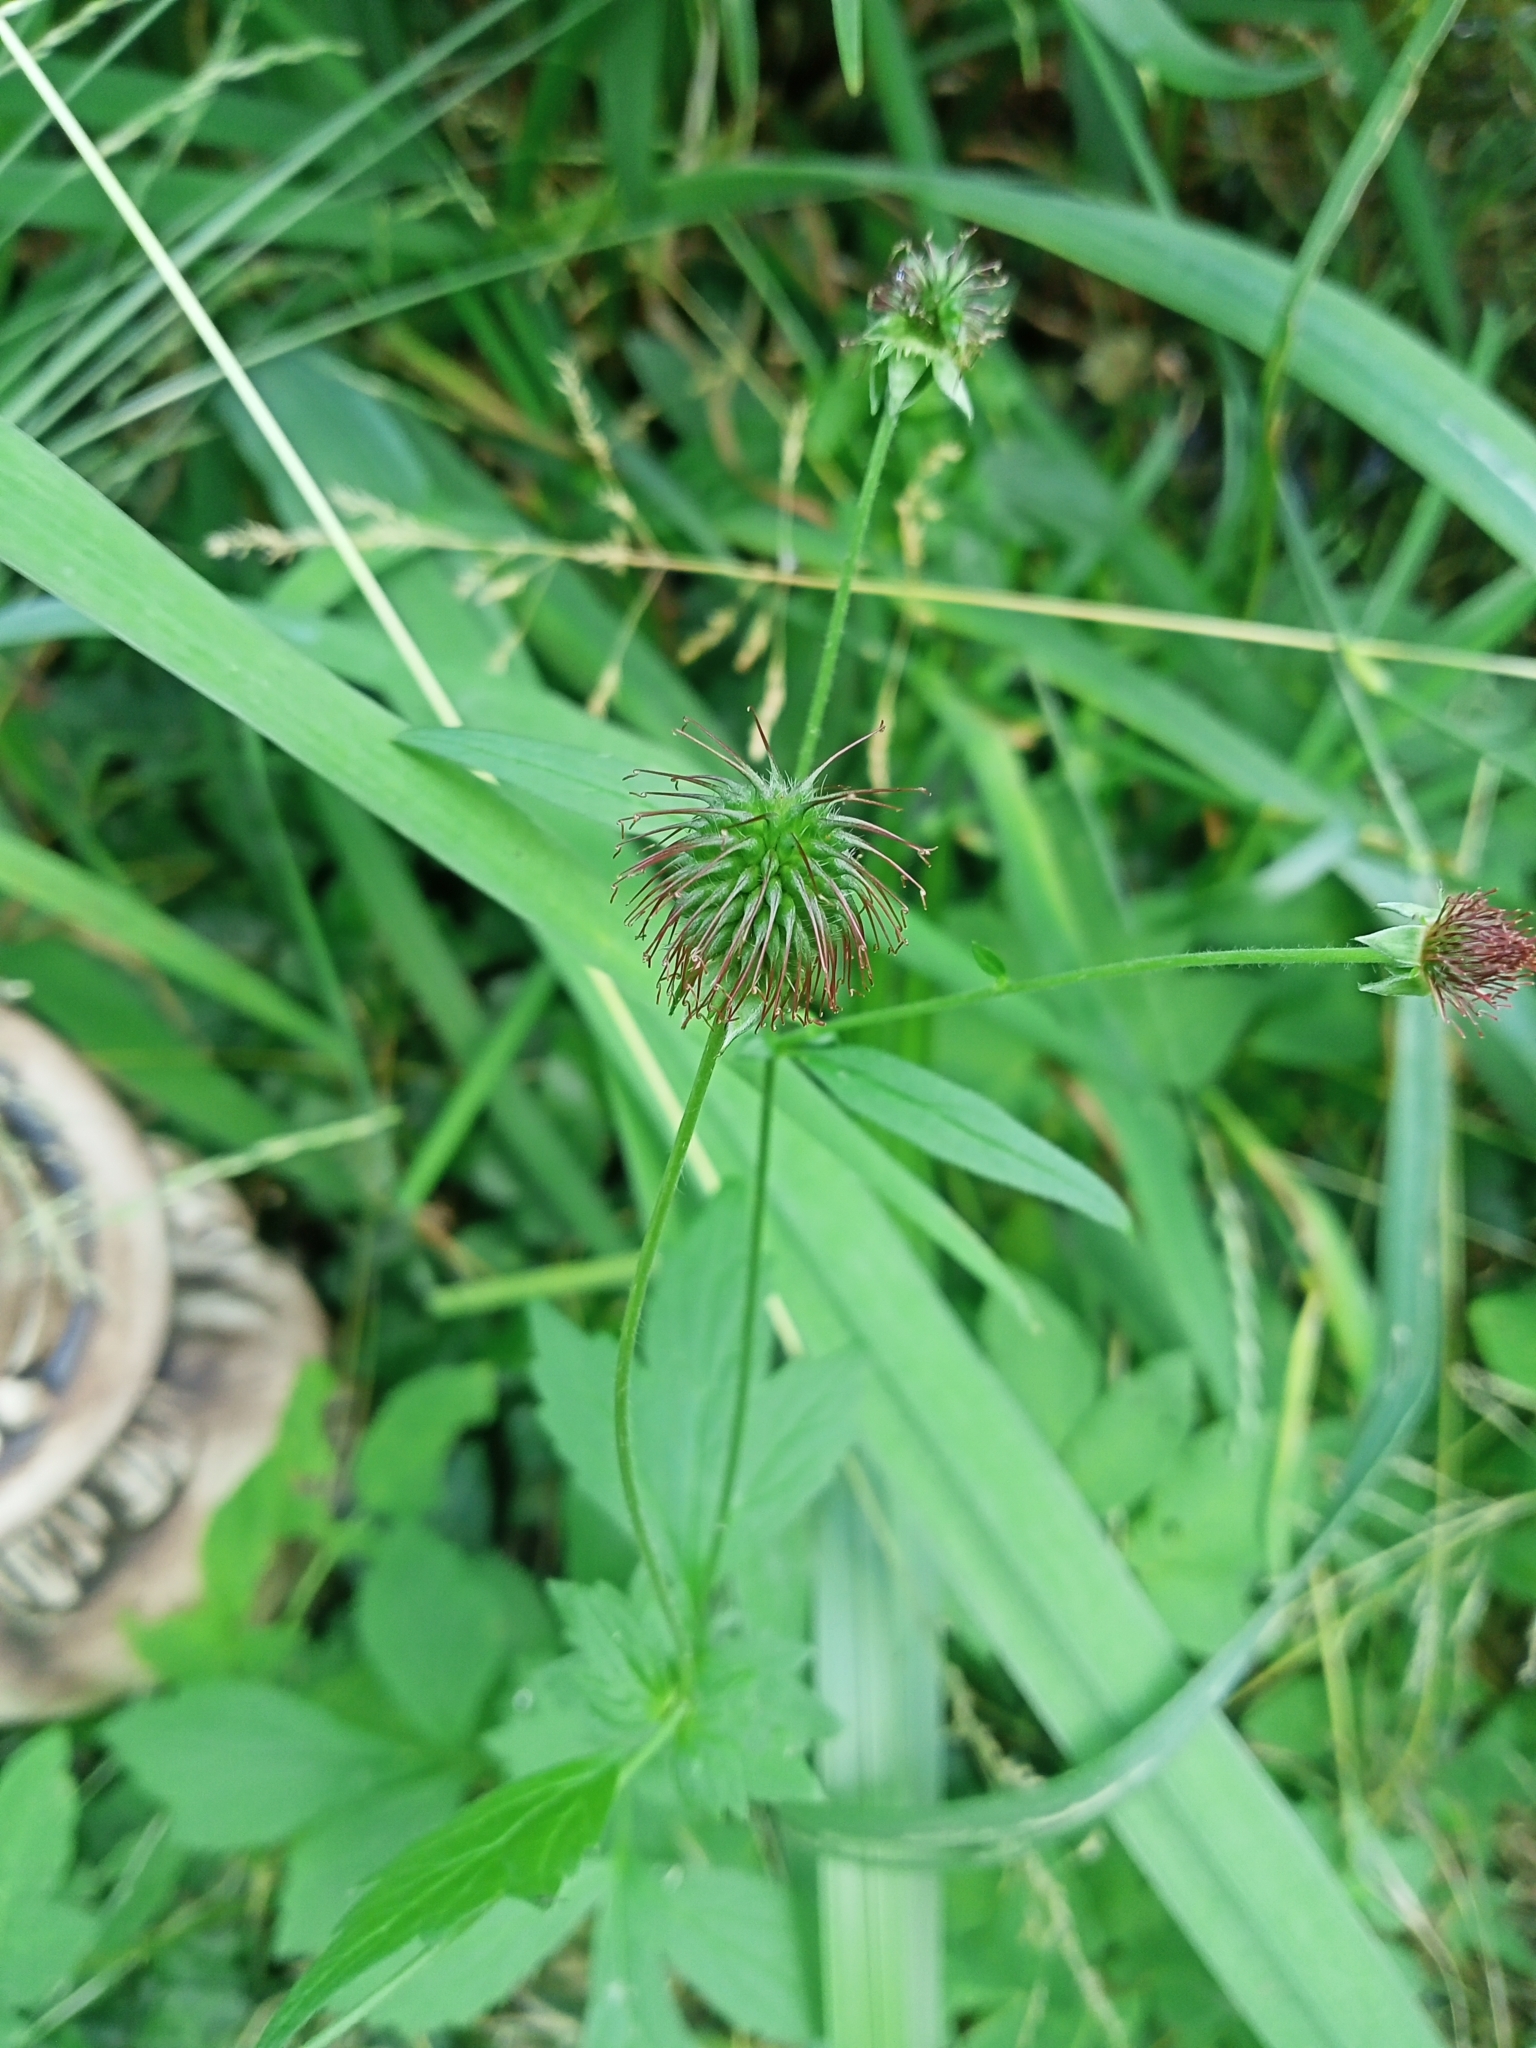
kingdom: Plantae
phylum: Tracheophyta
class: Magnoliopsida
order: Rosales
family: Rosaceae
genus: Geum
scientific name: Geum urbanum
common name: Wood avens
